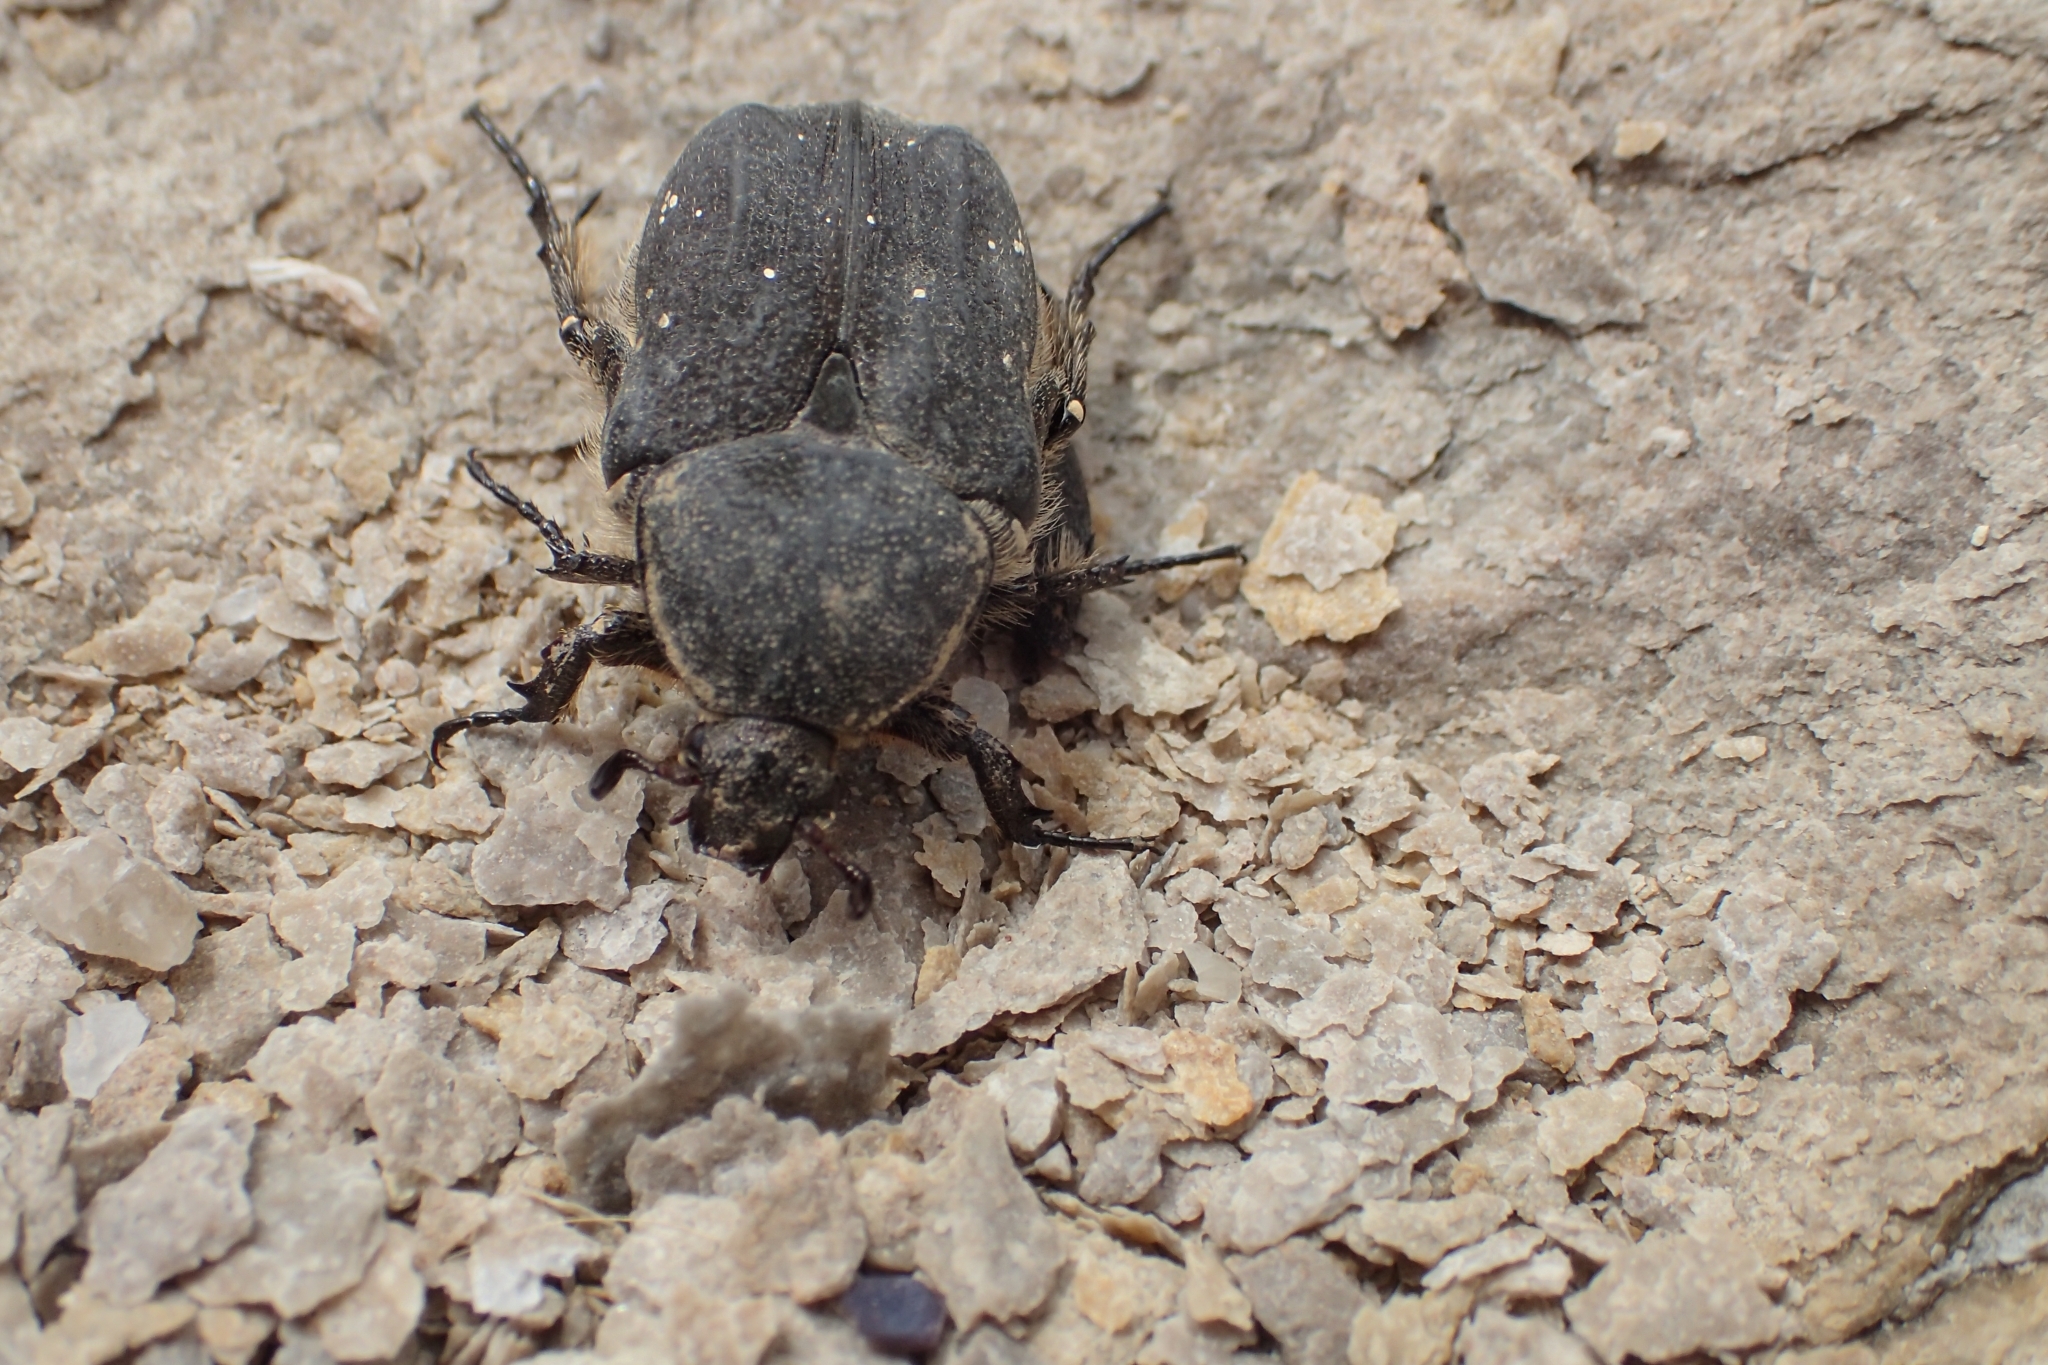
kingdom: Animalia
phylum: Arthropoda
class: Insecta
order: Coleoptera
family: Scarabaeidae
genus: Protaetia
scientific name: Protaetia morio
